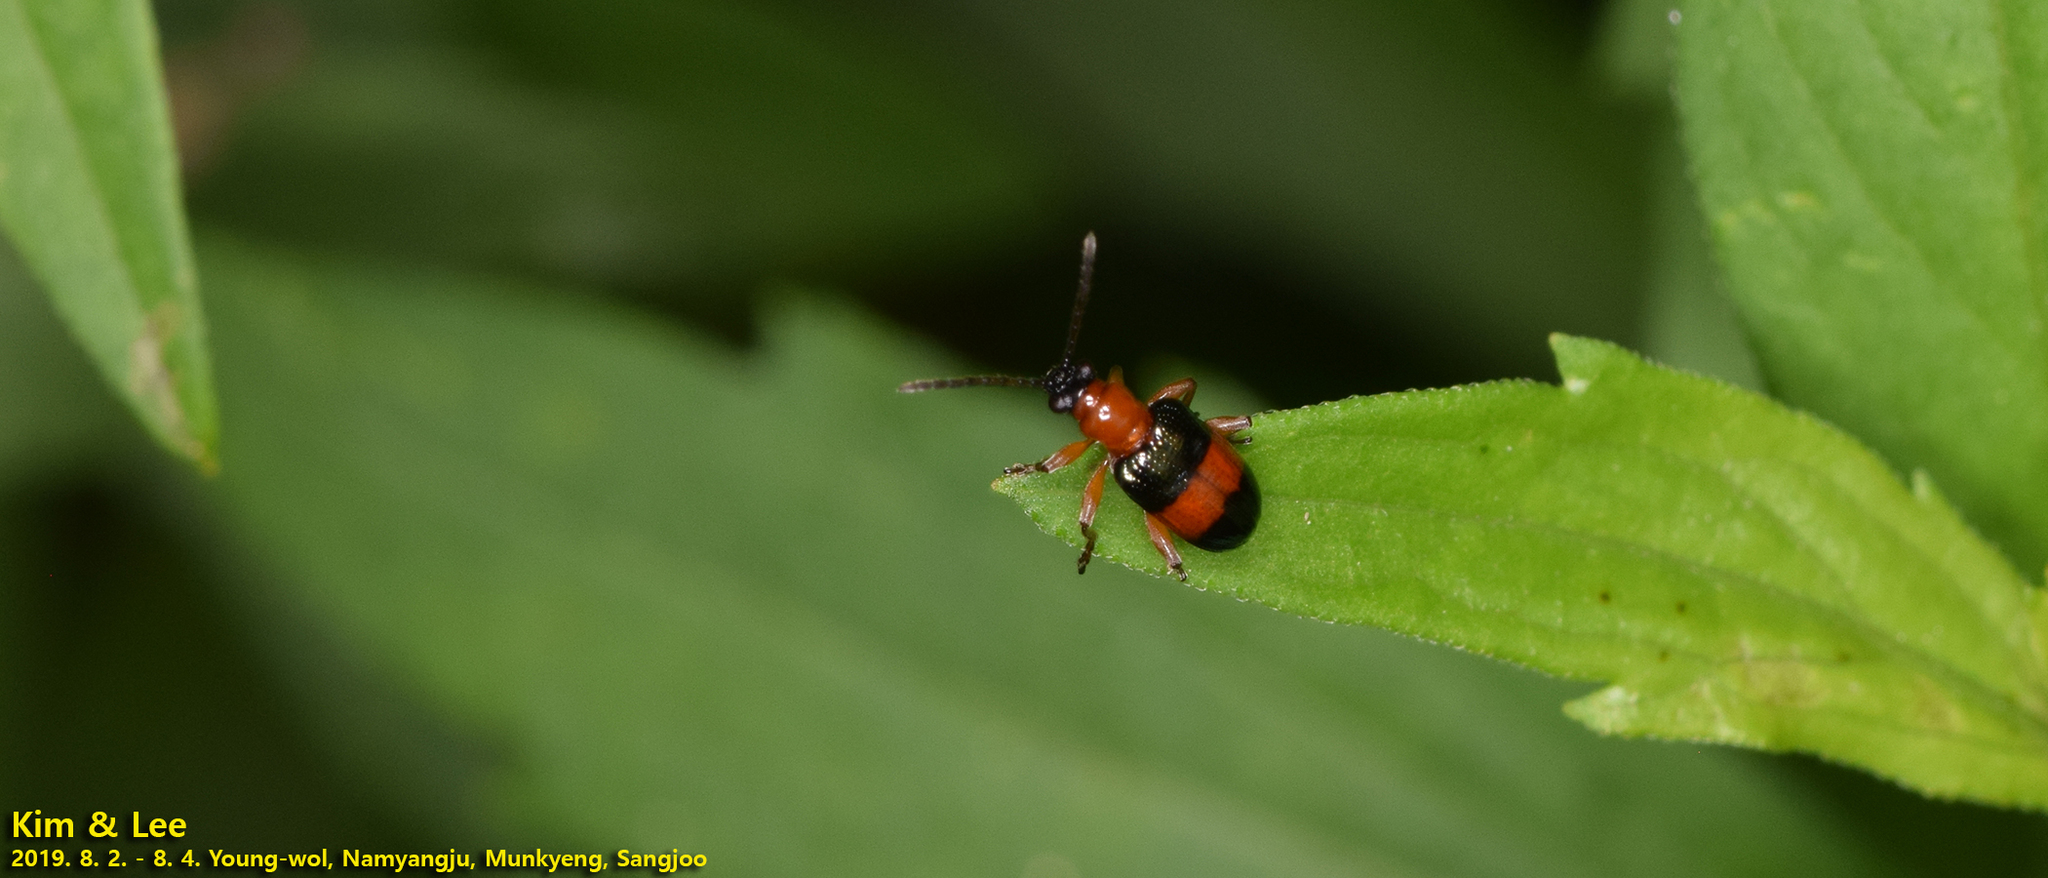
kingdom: Animalia
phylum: Arthropoda
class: Insecta
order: Coleoptera
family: Chrysomelidae
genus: Lema
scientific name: Lema
